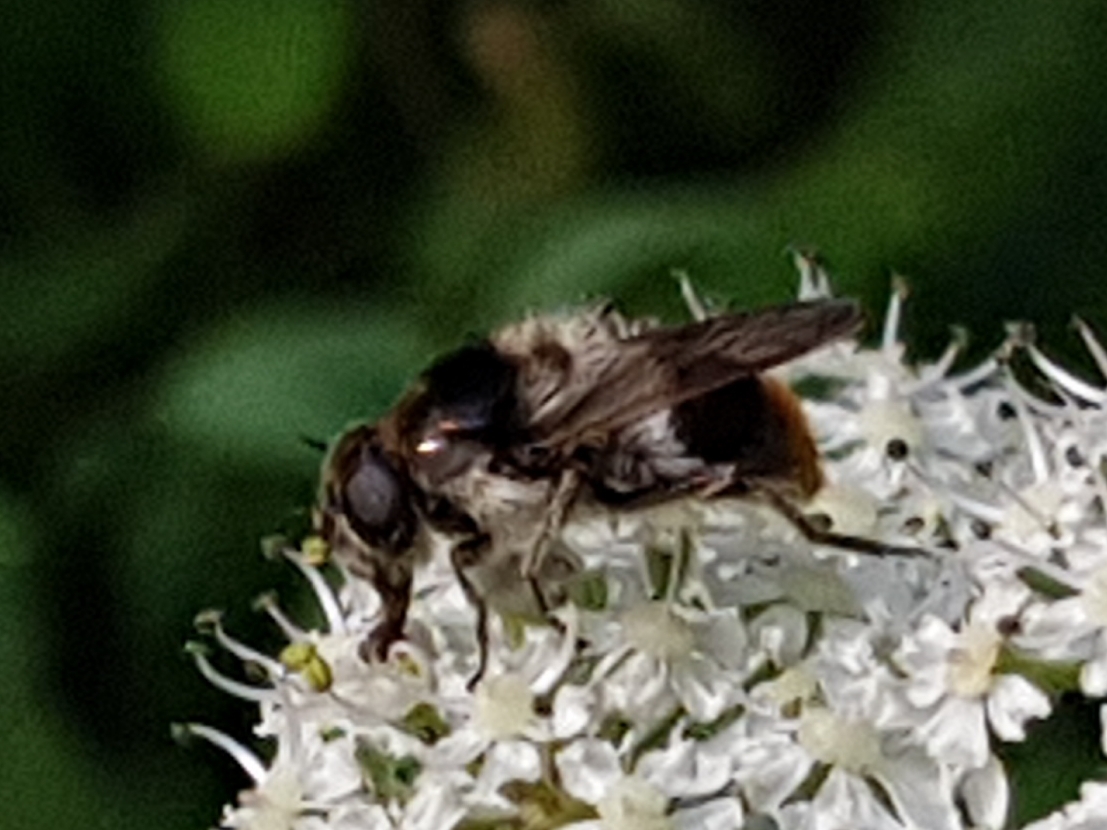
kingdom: Animalia
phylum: Arthropoda
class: Insecta
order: Diptera
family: Syrphidae
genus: Cheilosia
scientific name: Cheilosia illustrata
